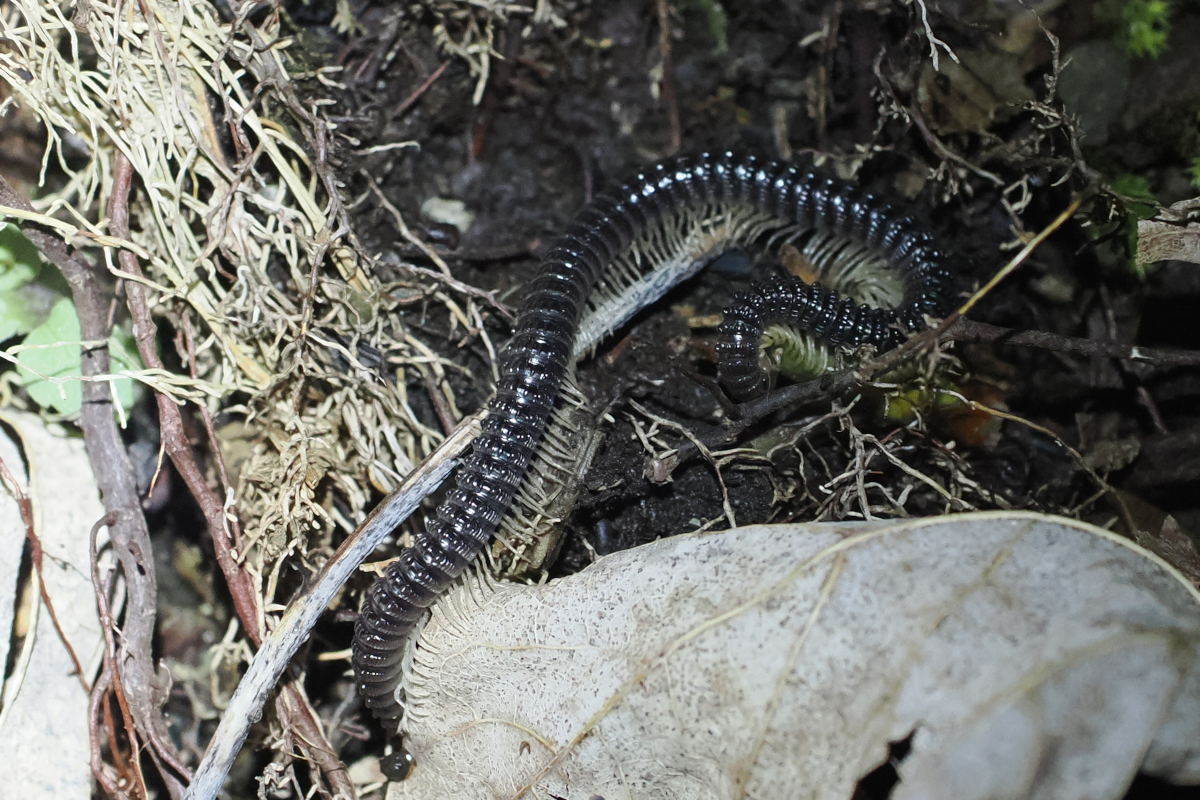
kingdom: Animalia
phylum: Arthropoda
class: Diplopoda
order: Spirostreptida
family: Cambalidae
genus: Cambala
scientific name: Cambala hubrichti
